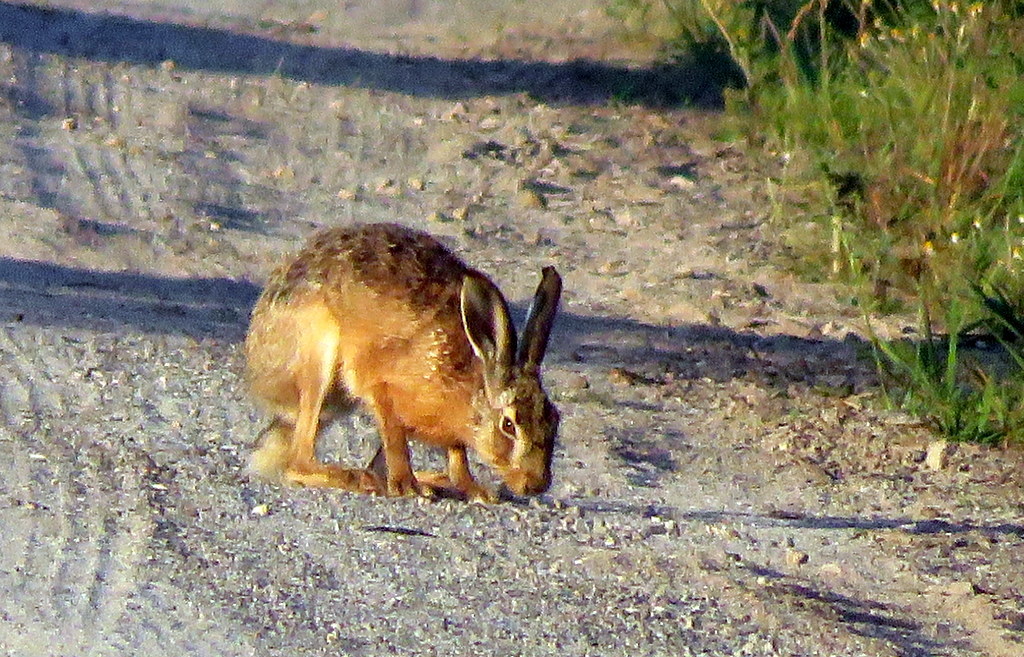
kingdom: Animalia
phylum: Chordata
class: Mammalia
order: Lagomorpha
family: Leporidae
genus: Lepus
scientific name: Lepus europaeus
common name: European hare
